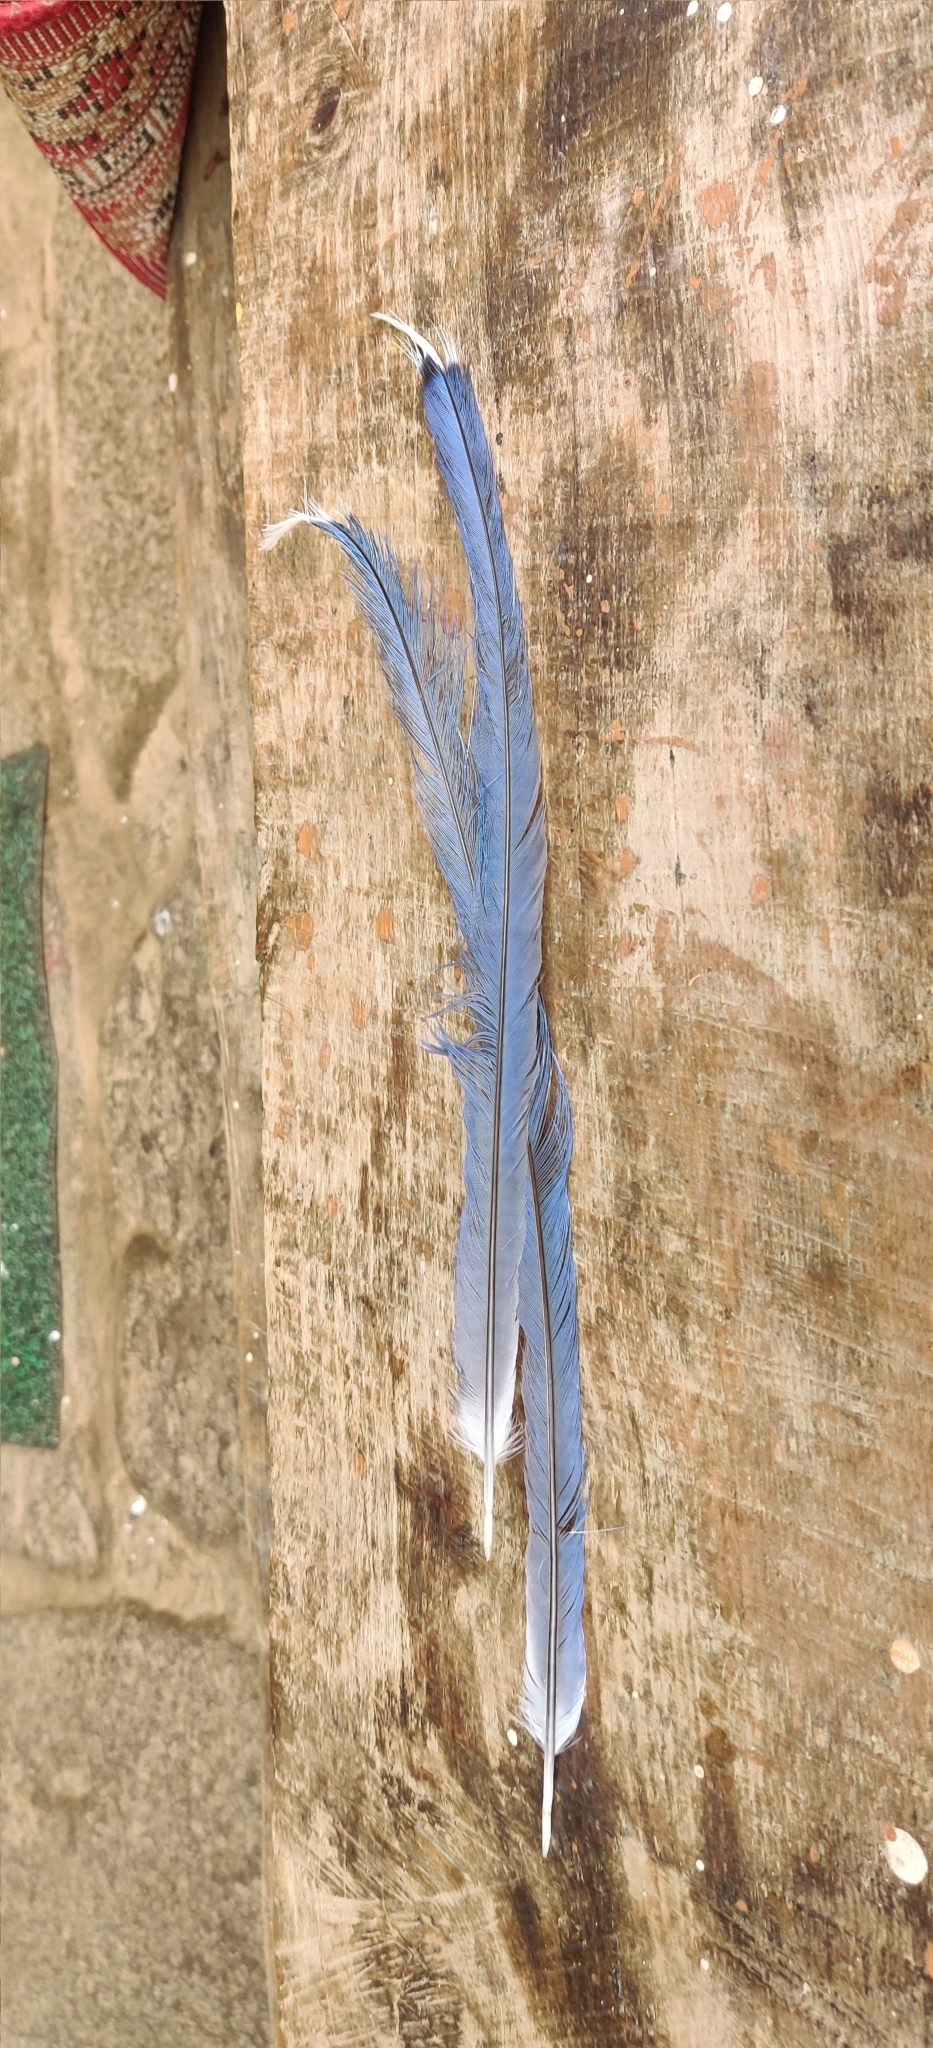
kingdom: Animalia
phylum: Chordata
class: Aves
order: Passeriformes
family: Corvidae
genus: Urocissa
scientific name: Urocissa erythroryncha
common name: Red-billed blue magpie
